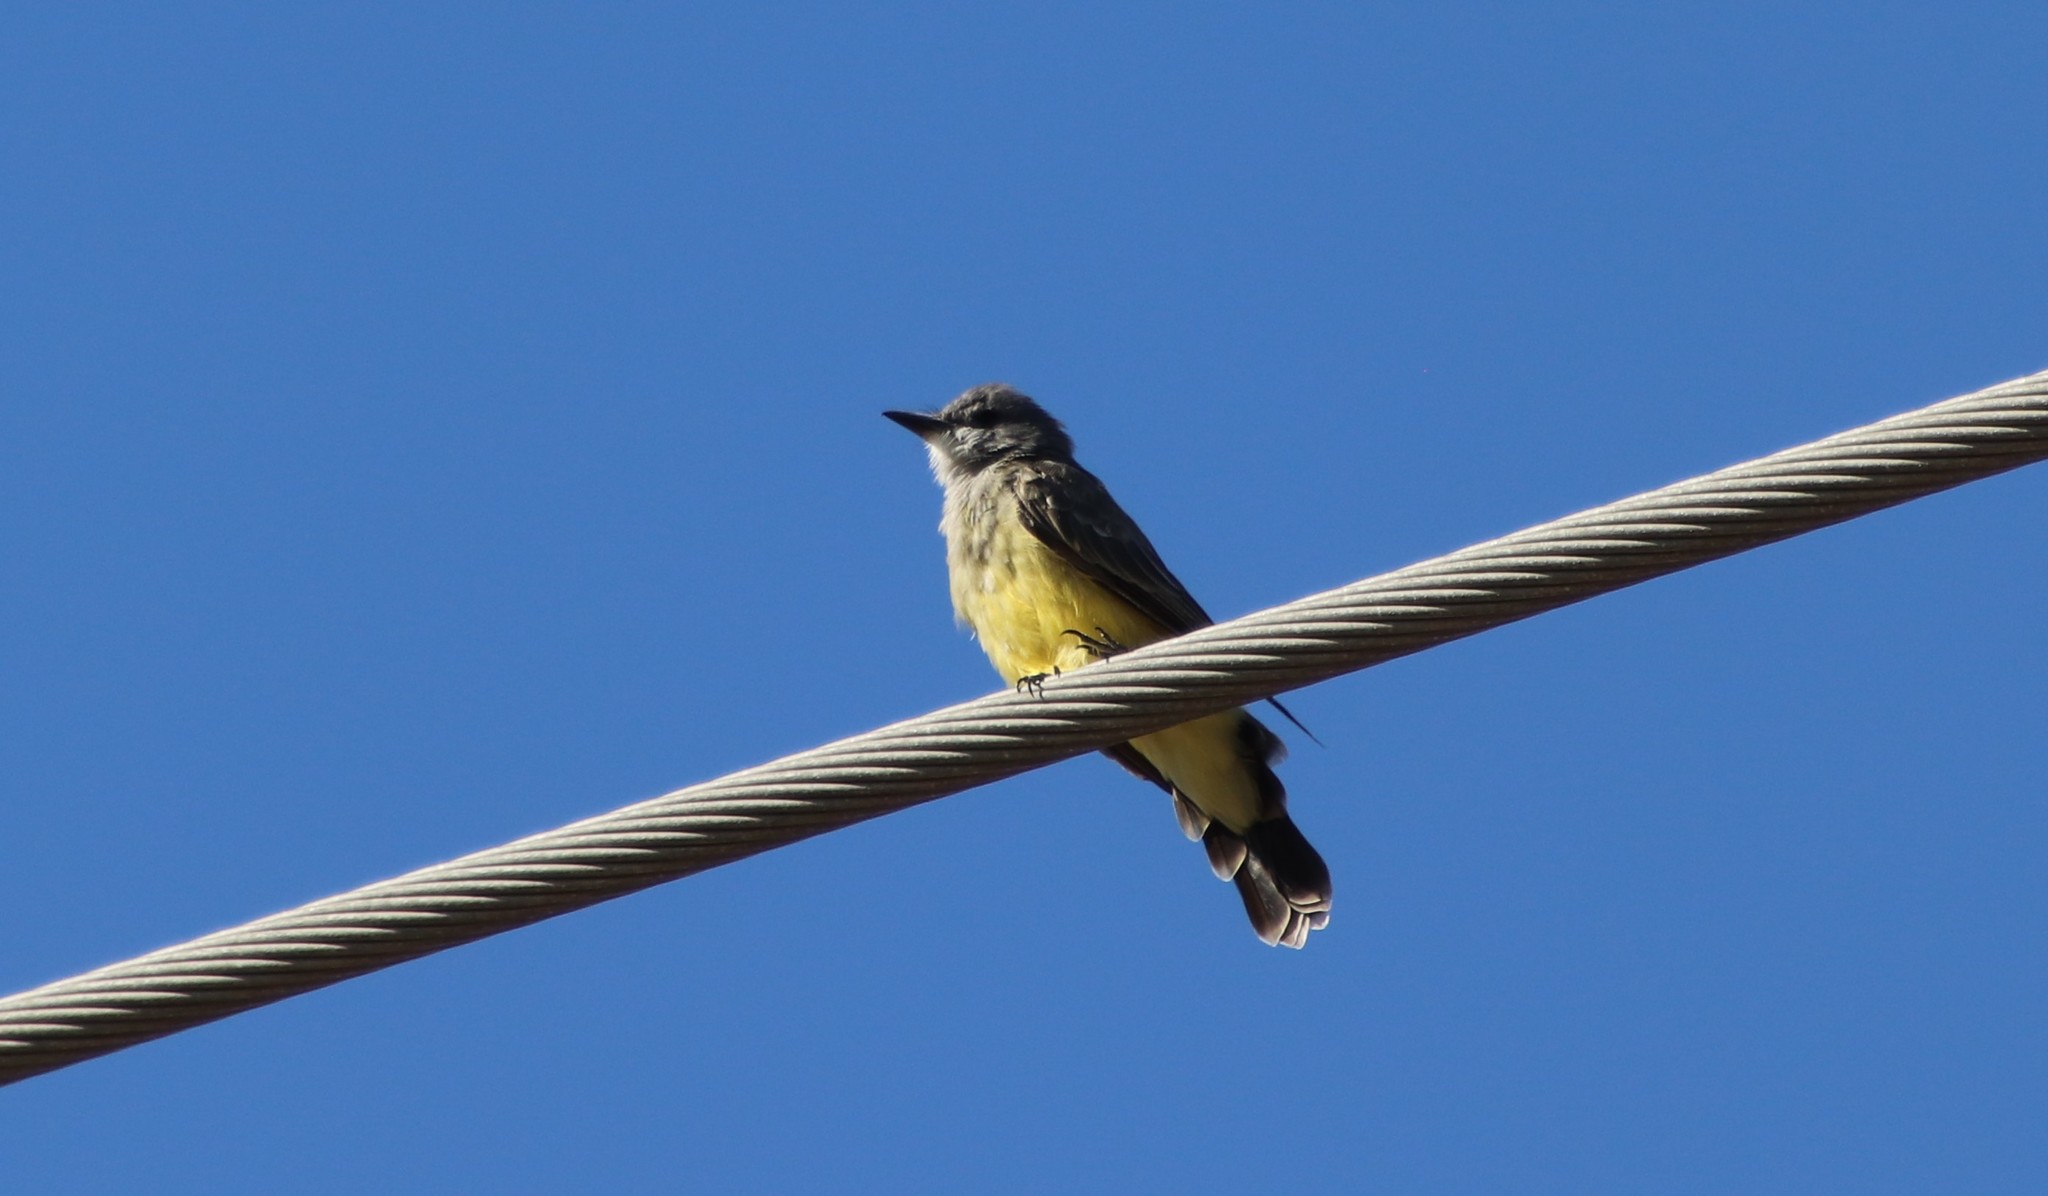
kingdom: Animalia
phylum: Chordata
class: Aves
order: Passeriformes
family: Tyrannidae
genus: Tyrannus
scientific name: Tyrannus vociferans
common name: Cassin's kingbird
